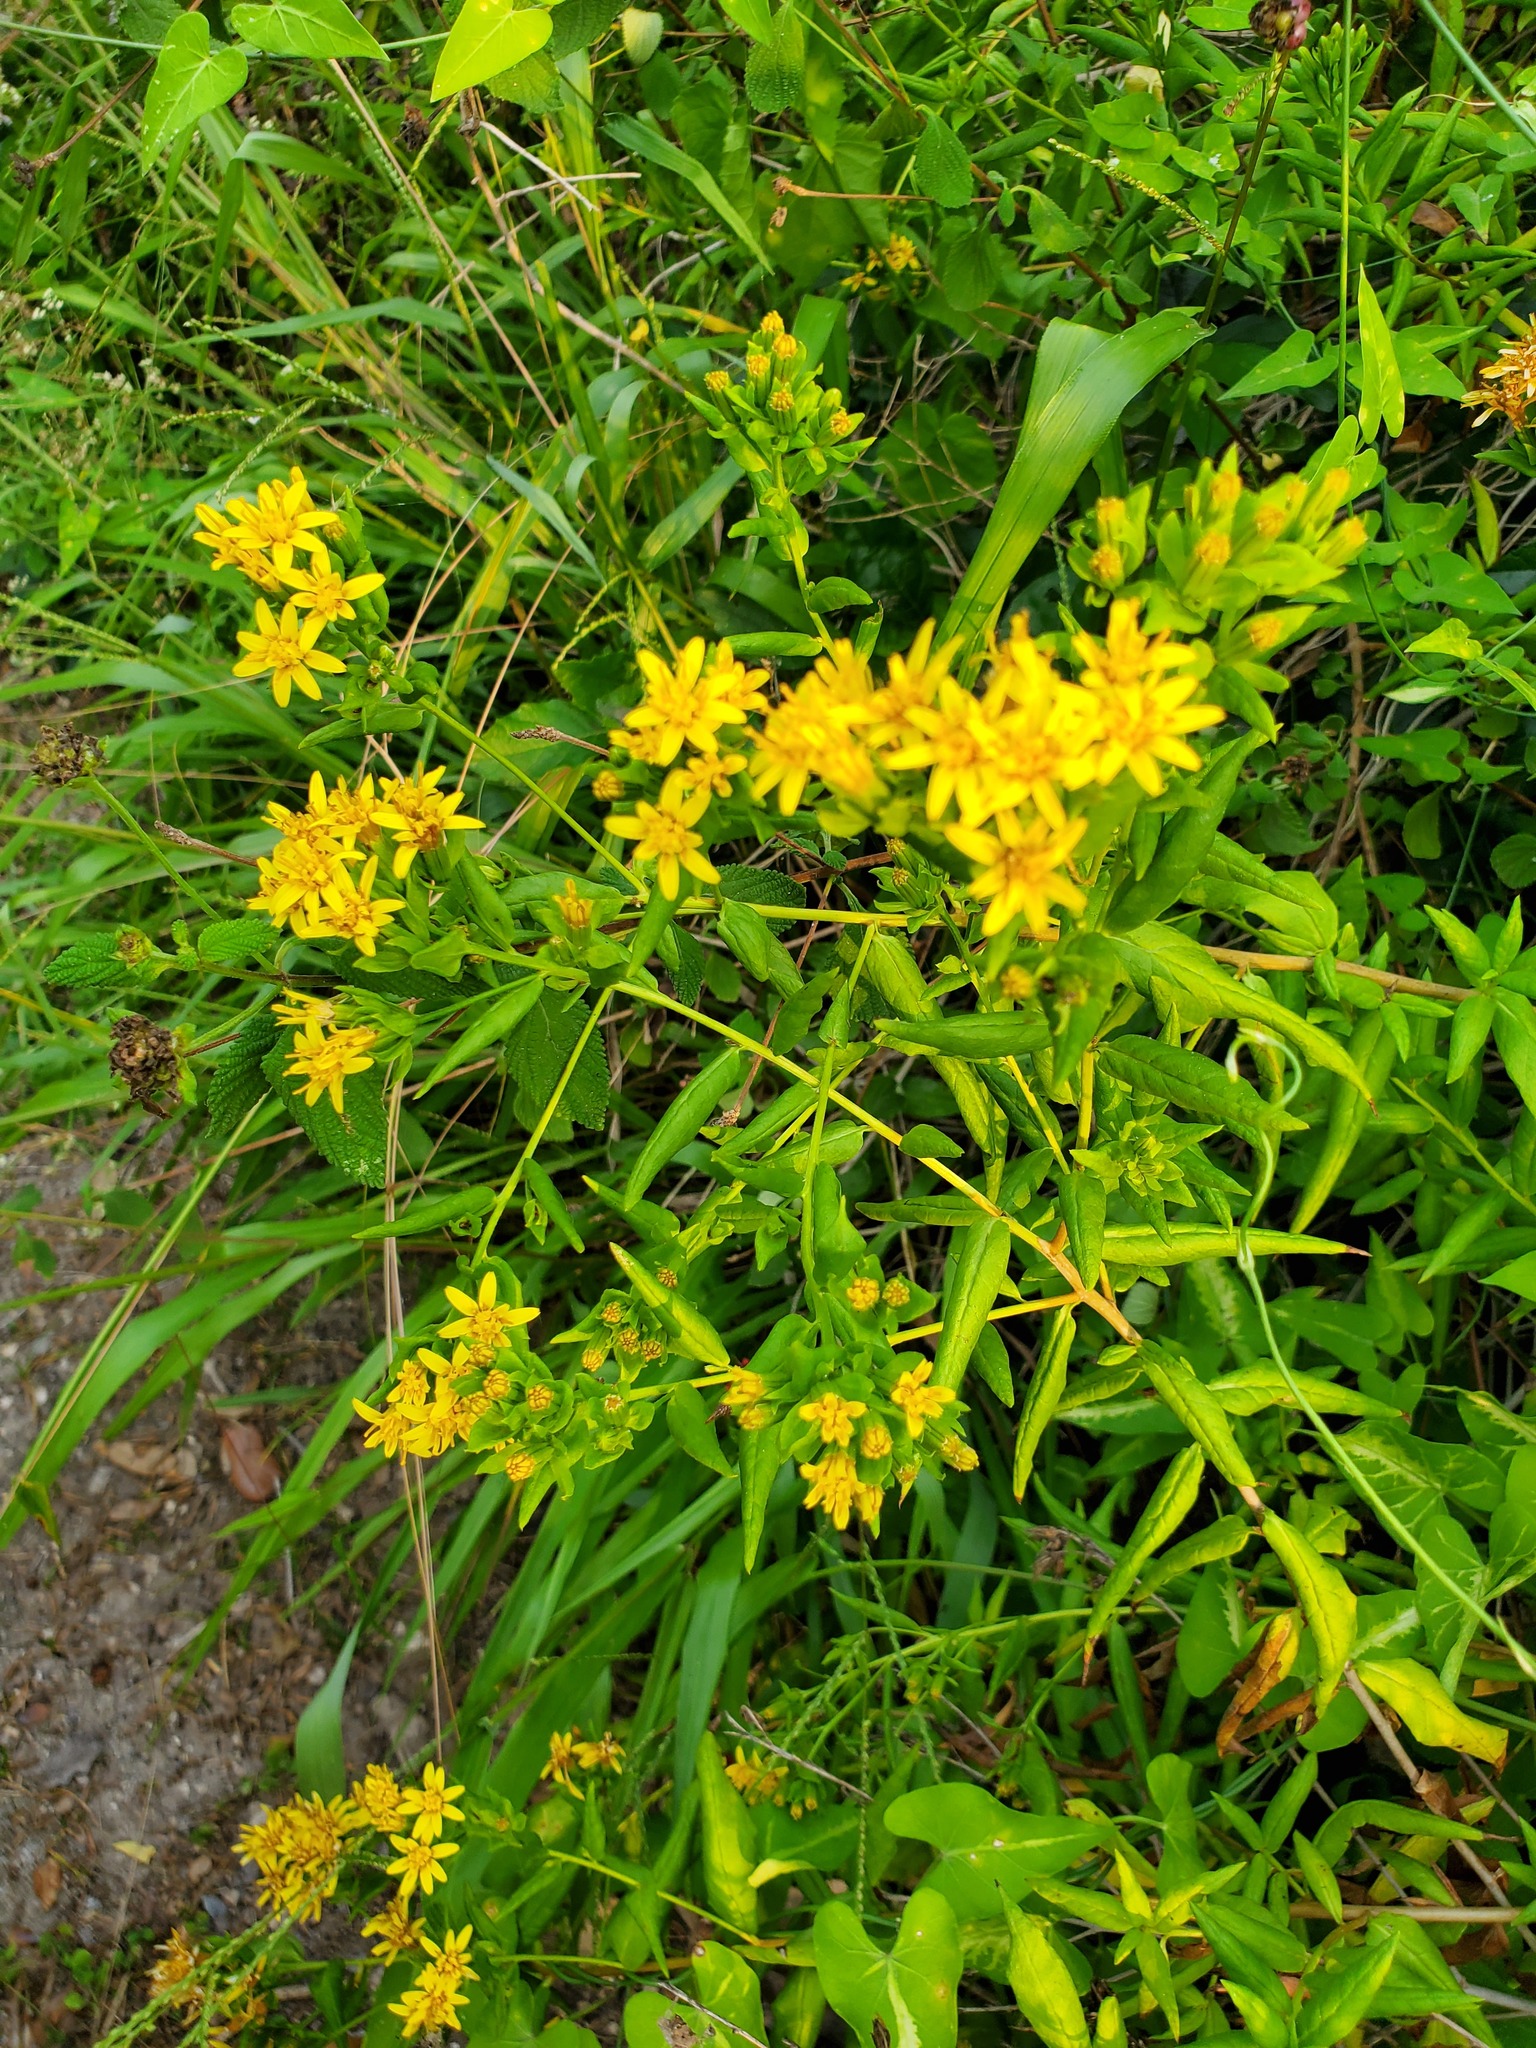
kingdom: Plantae
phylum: Tracheophyta
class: Magnoliopsida
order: Asterales
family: Asteraceae
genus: Trixis
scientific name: Trixis inula
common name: Tropical threefold
